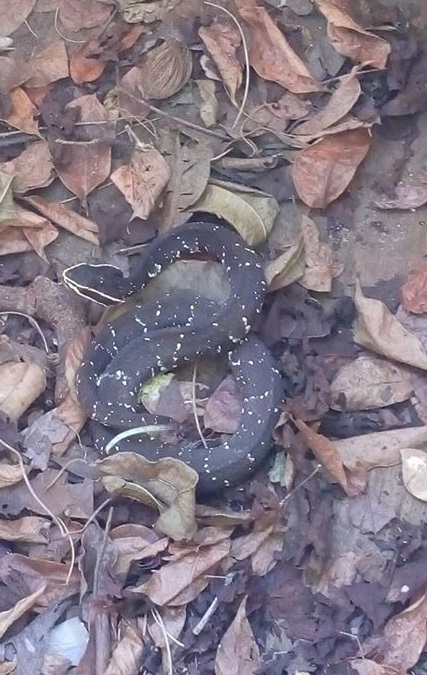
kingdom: Animalia
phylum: Chordata
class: Squamata
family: Viperidae
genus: Agkistrodon
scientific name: Agkistrodon bilineatus
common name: Mexican moccasin
